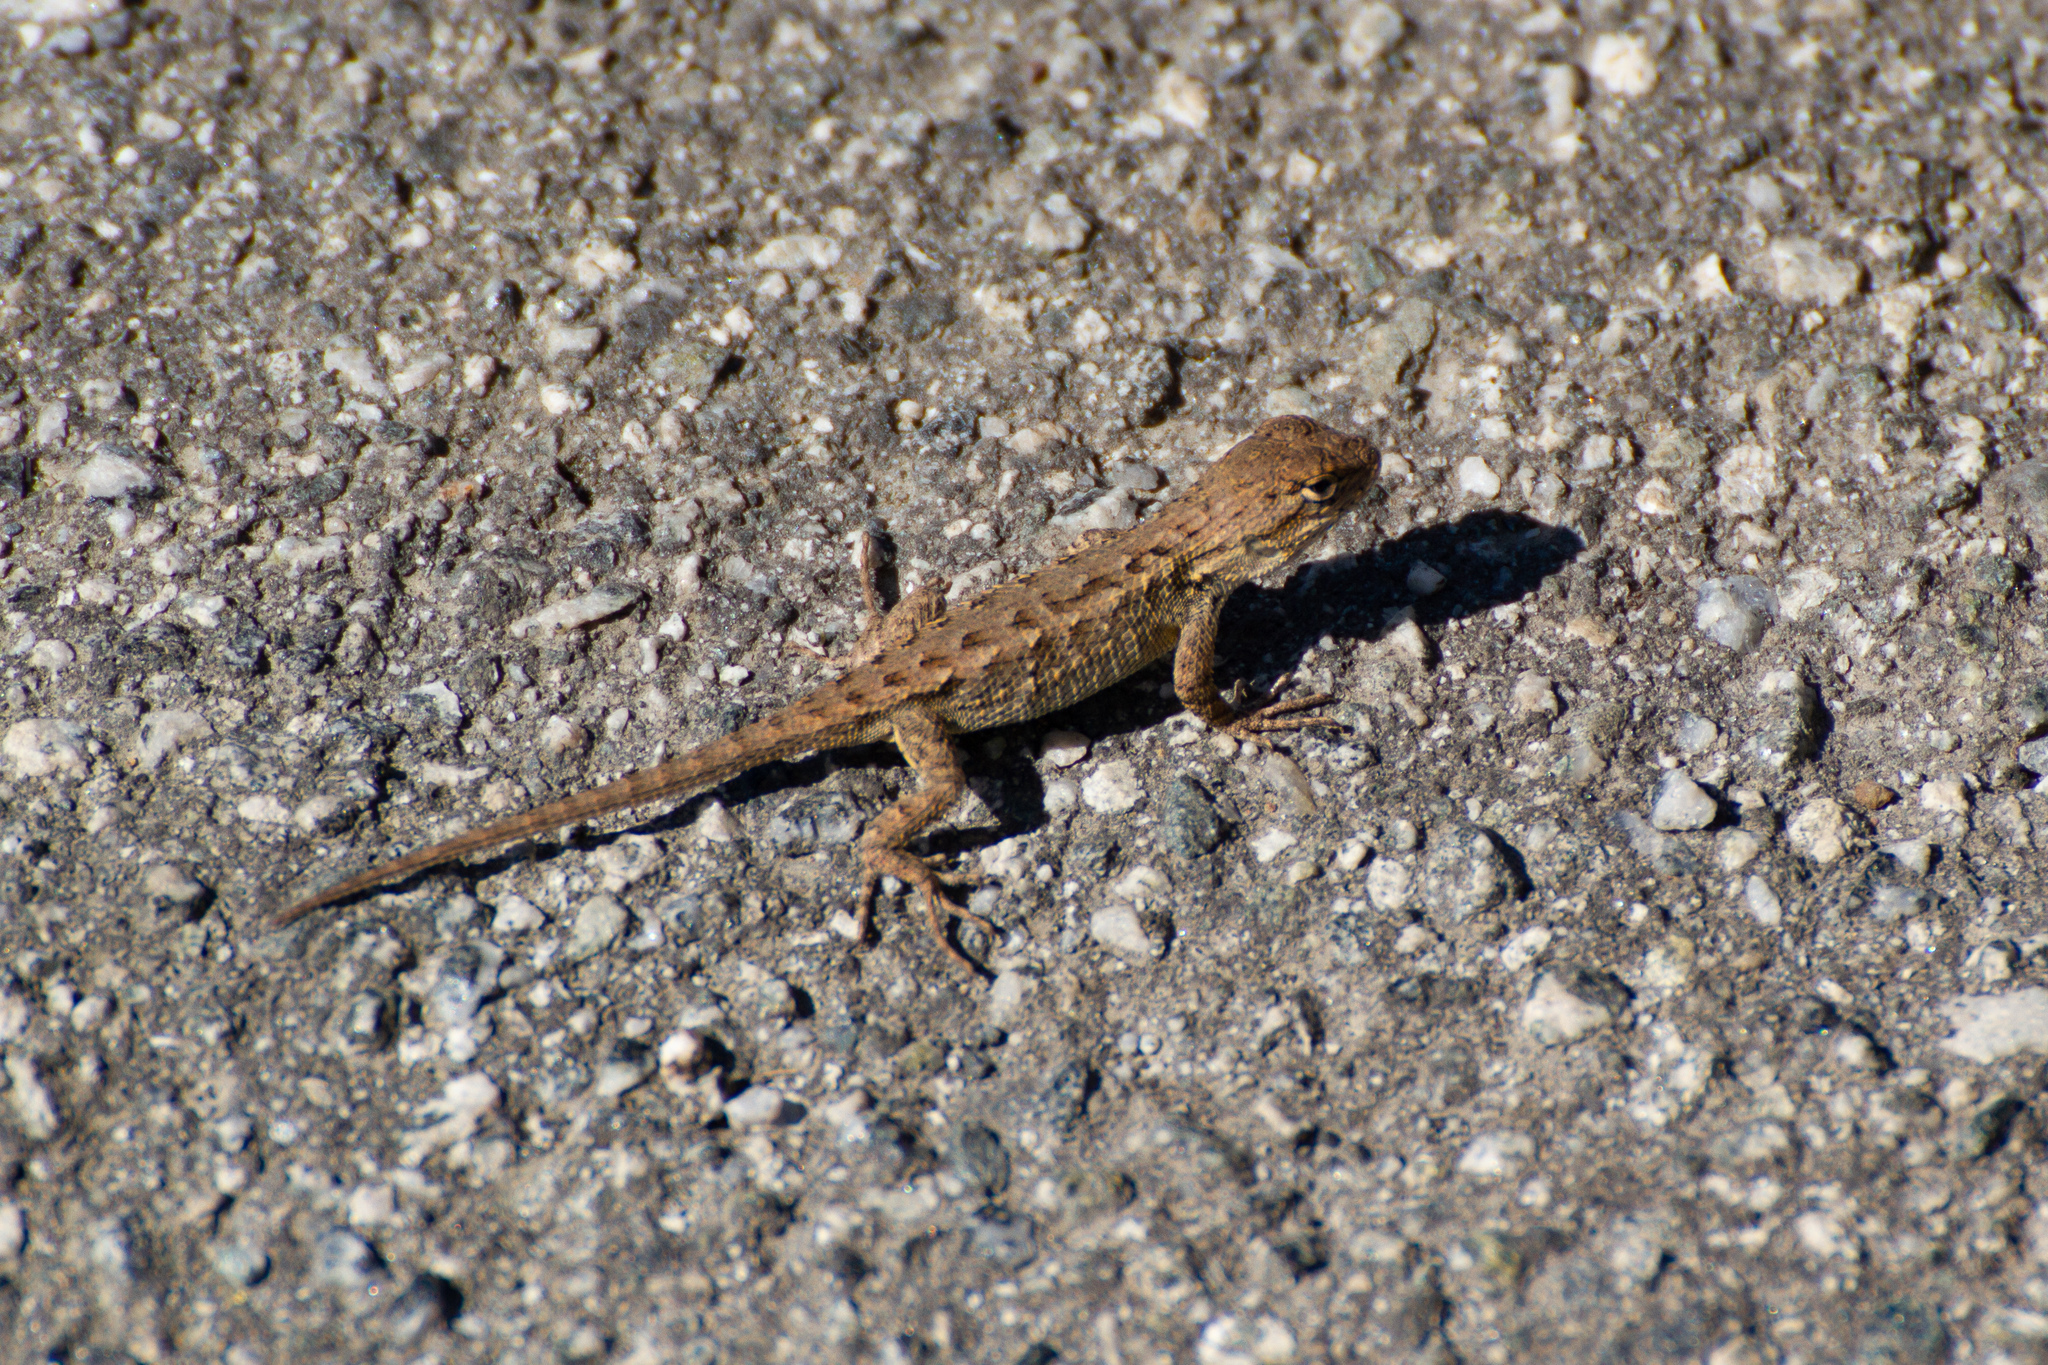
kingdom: Animalia
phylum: Chordata
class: Squamata
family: Phrynosomatidae
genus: Sceloporus
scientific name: Sceloporus occidentalis
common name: Western fence lizard
